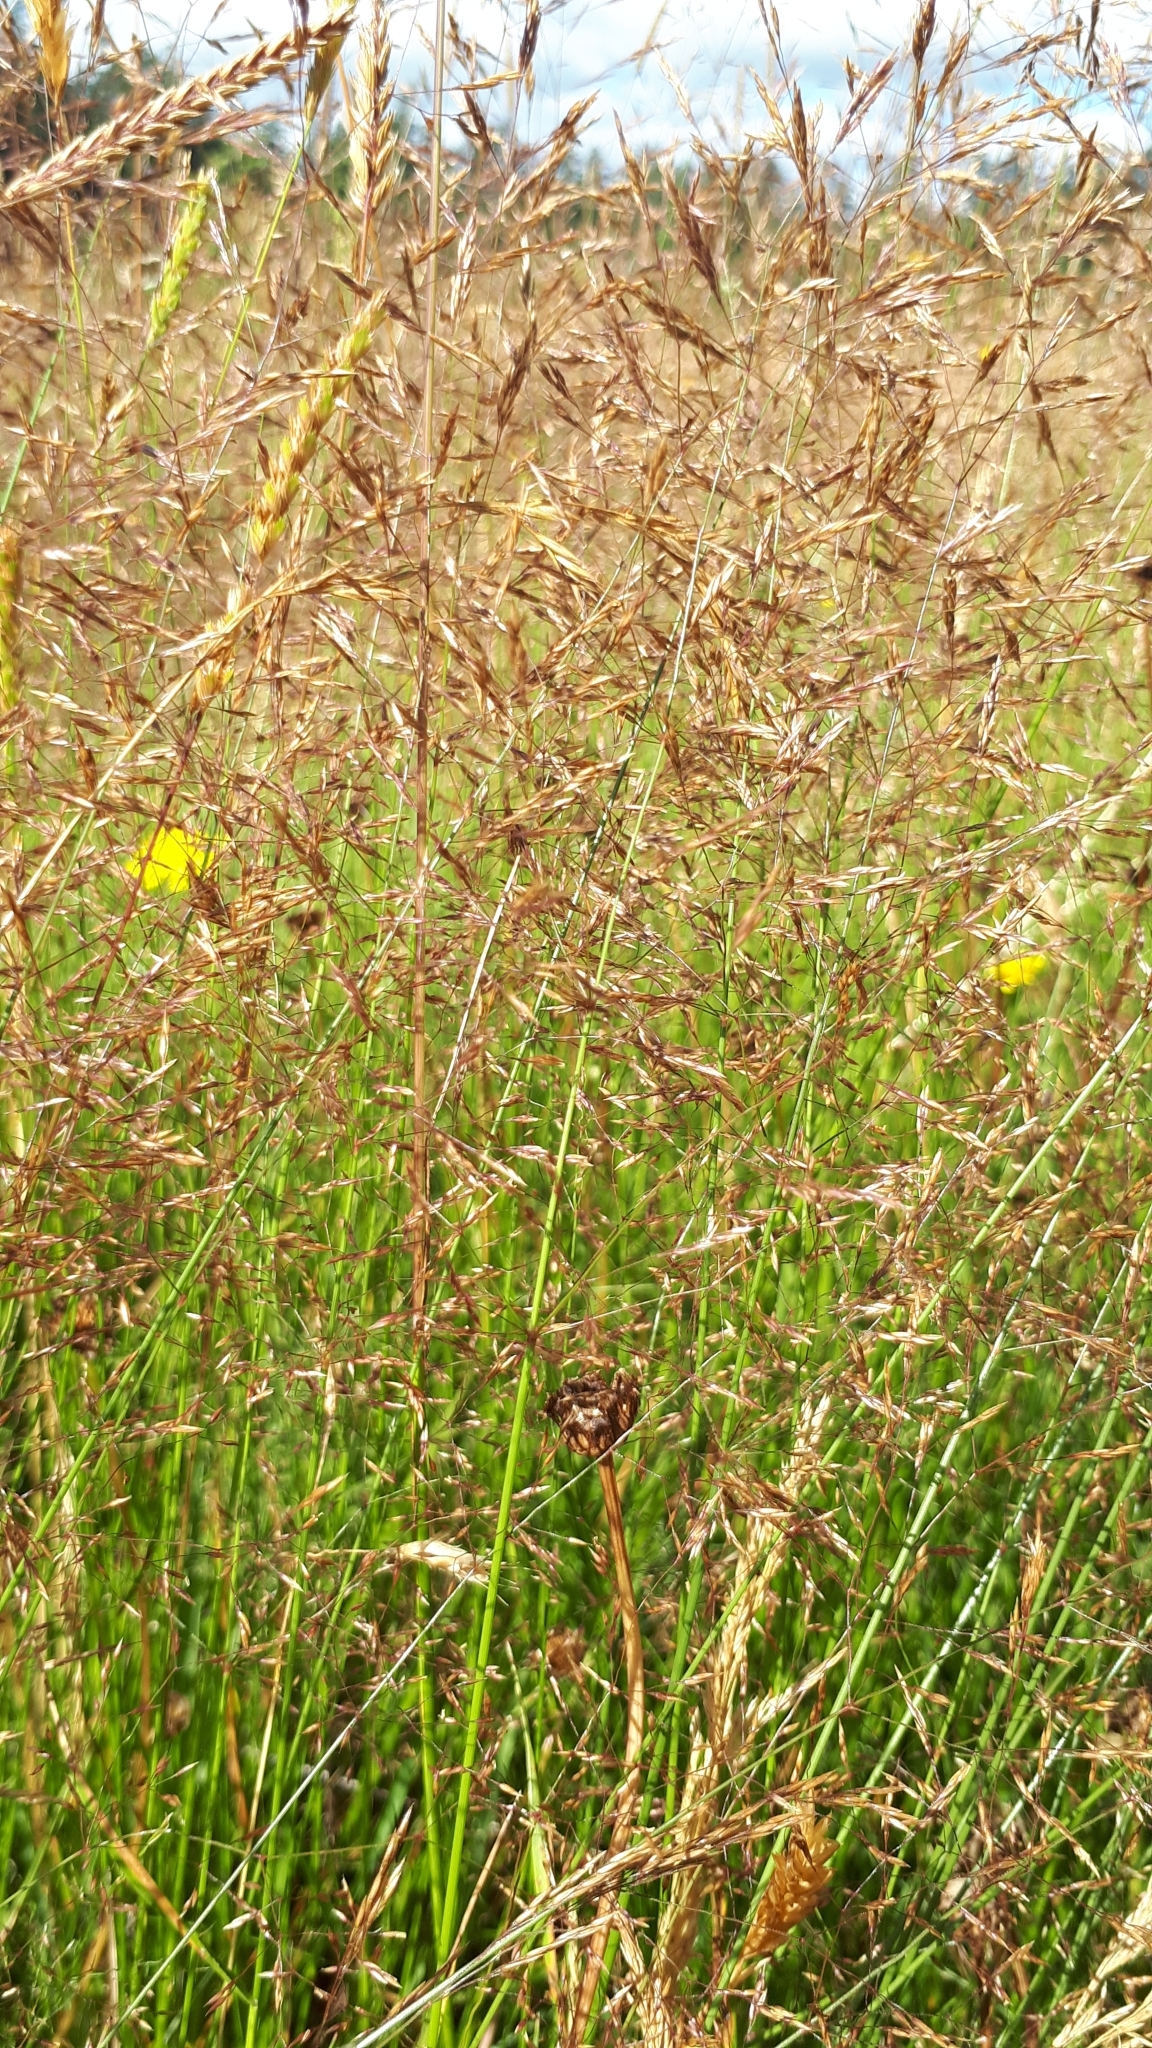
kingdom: Plantae
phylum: Tracheophyta
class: Liliopsida
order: Poales
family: Poaceae
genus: Agrostis
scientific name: Agrostis capillaris
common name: Colonial bentgrass
